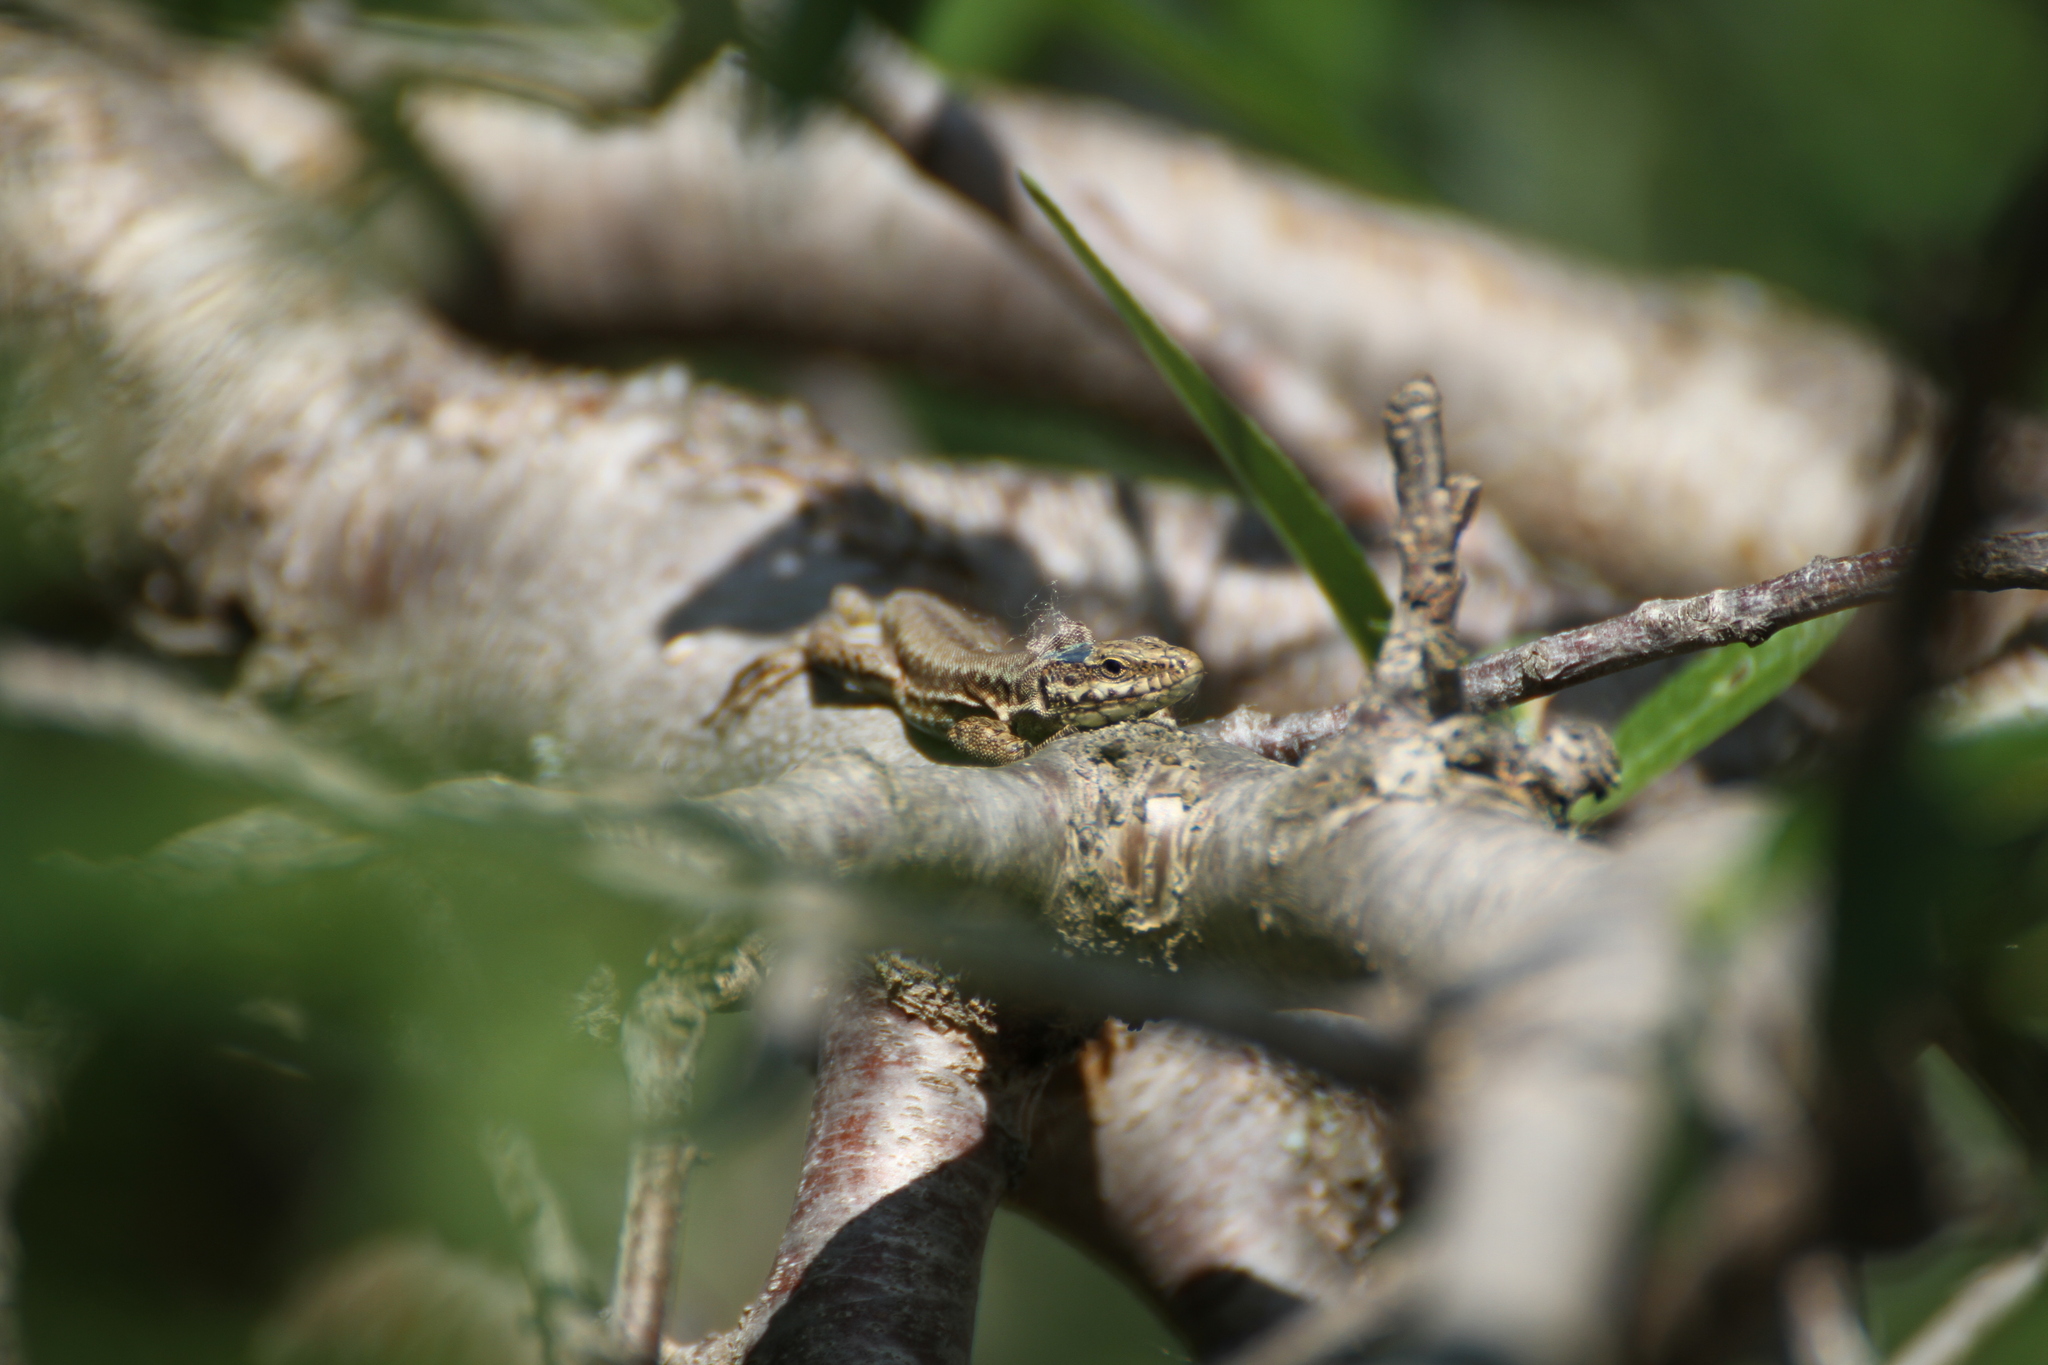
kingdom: Animalia
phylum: Chordata
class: Squamata
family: Lacertidae
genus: Podarcis
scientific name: Podarcis muralis
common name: Common wall lizard
